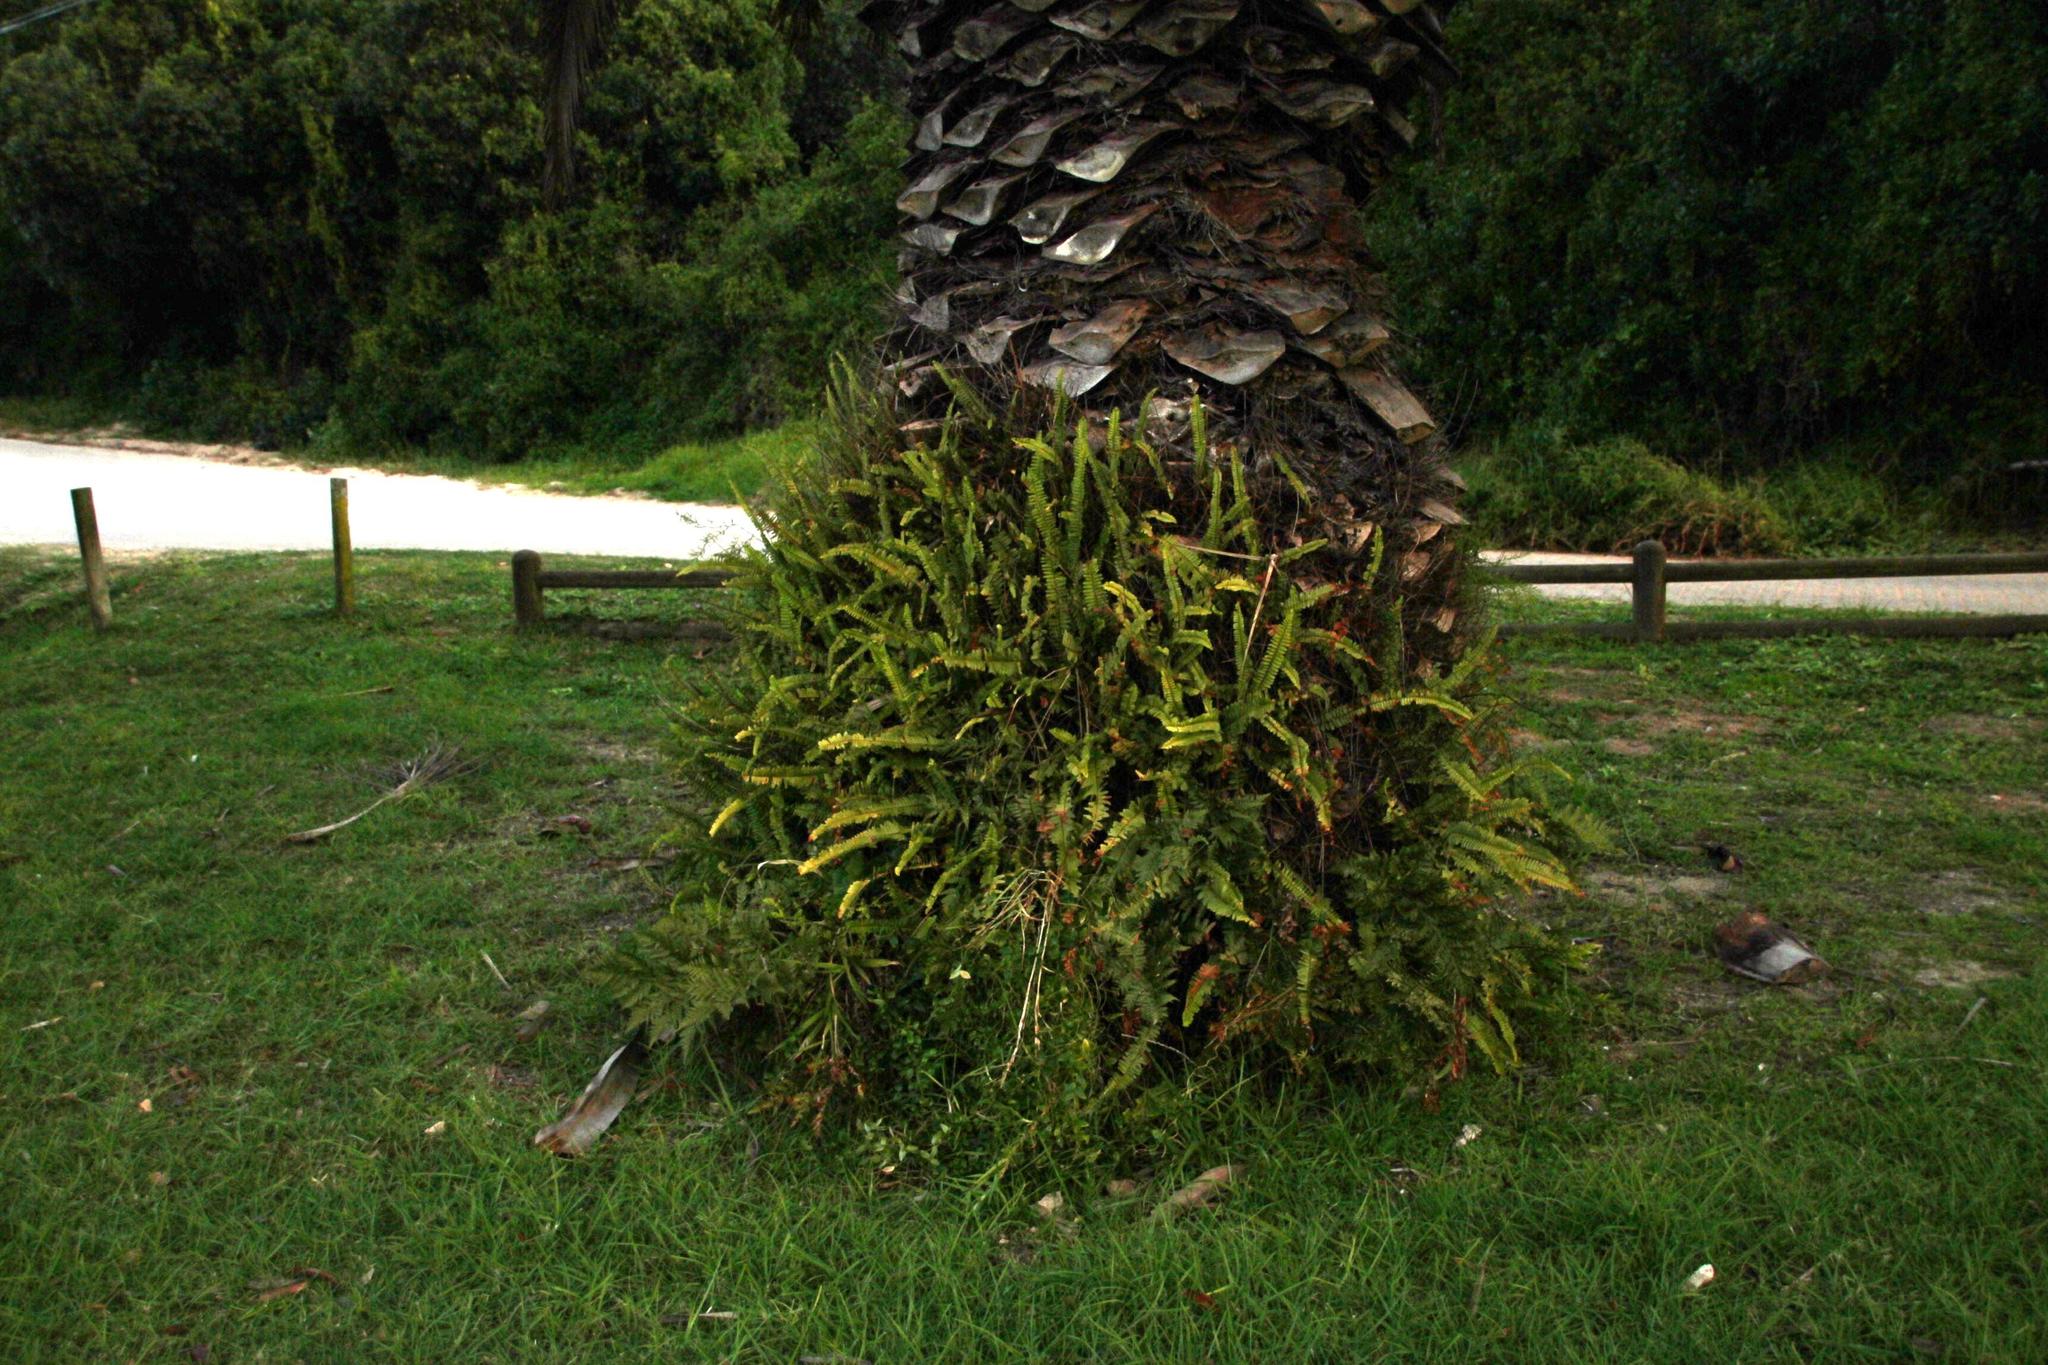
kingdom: Plantae
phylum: Tracheophyta
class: Polypodiopsida
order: Polypodiales
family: Nephrolepidaceae
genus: Nephrolepis
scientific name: Nephrolepis cordifolia
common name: Narrow swordfern
